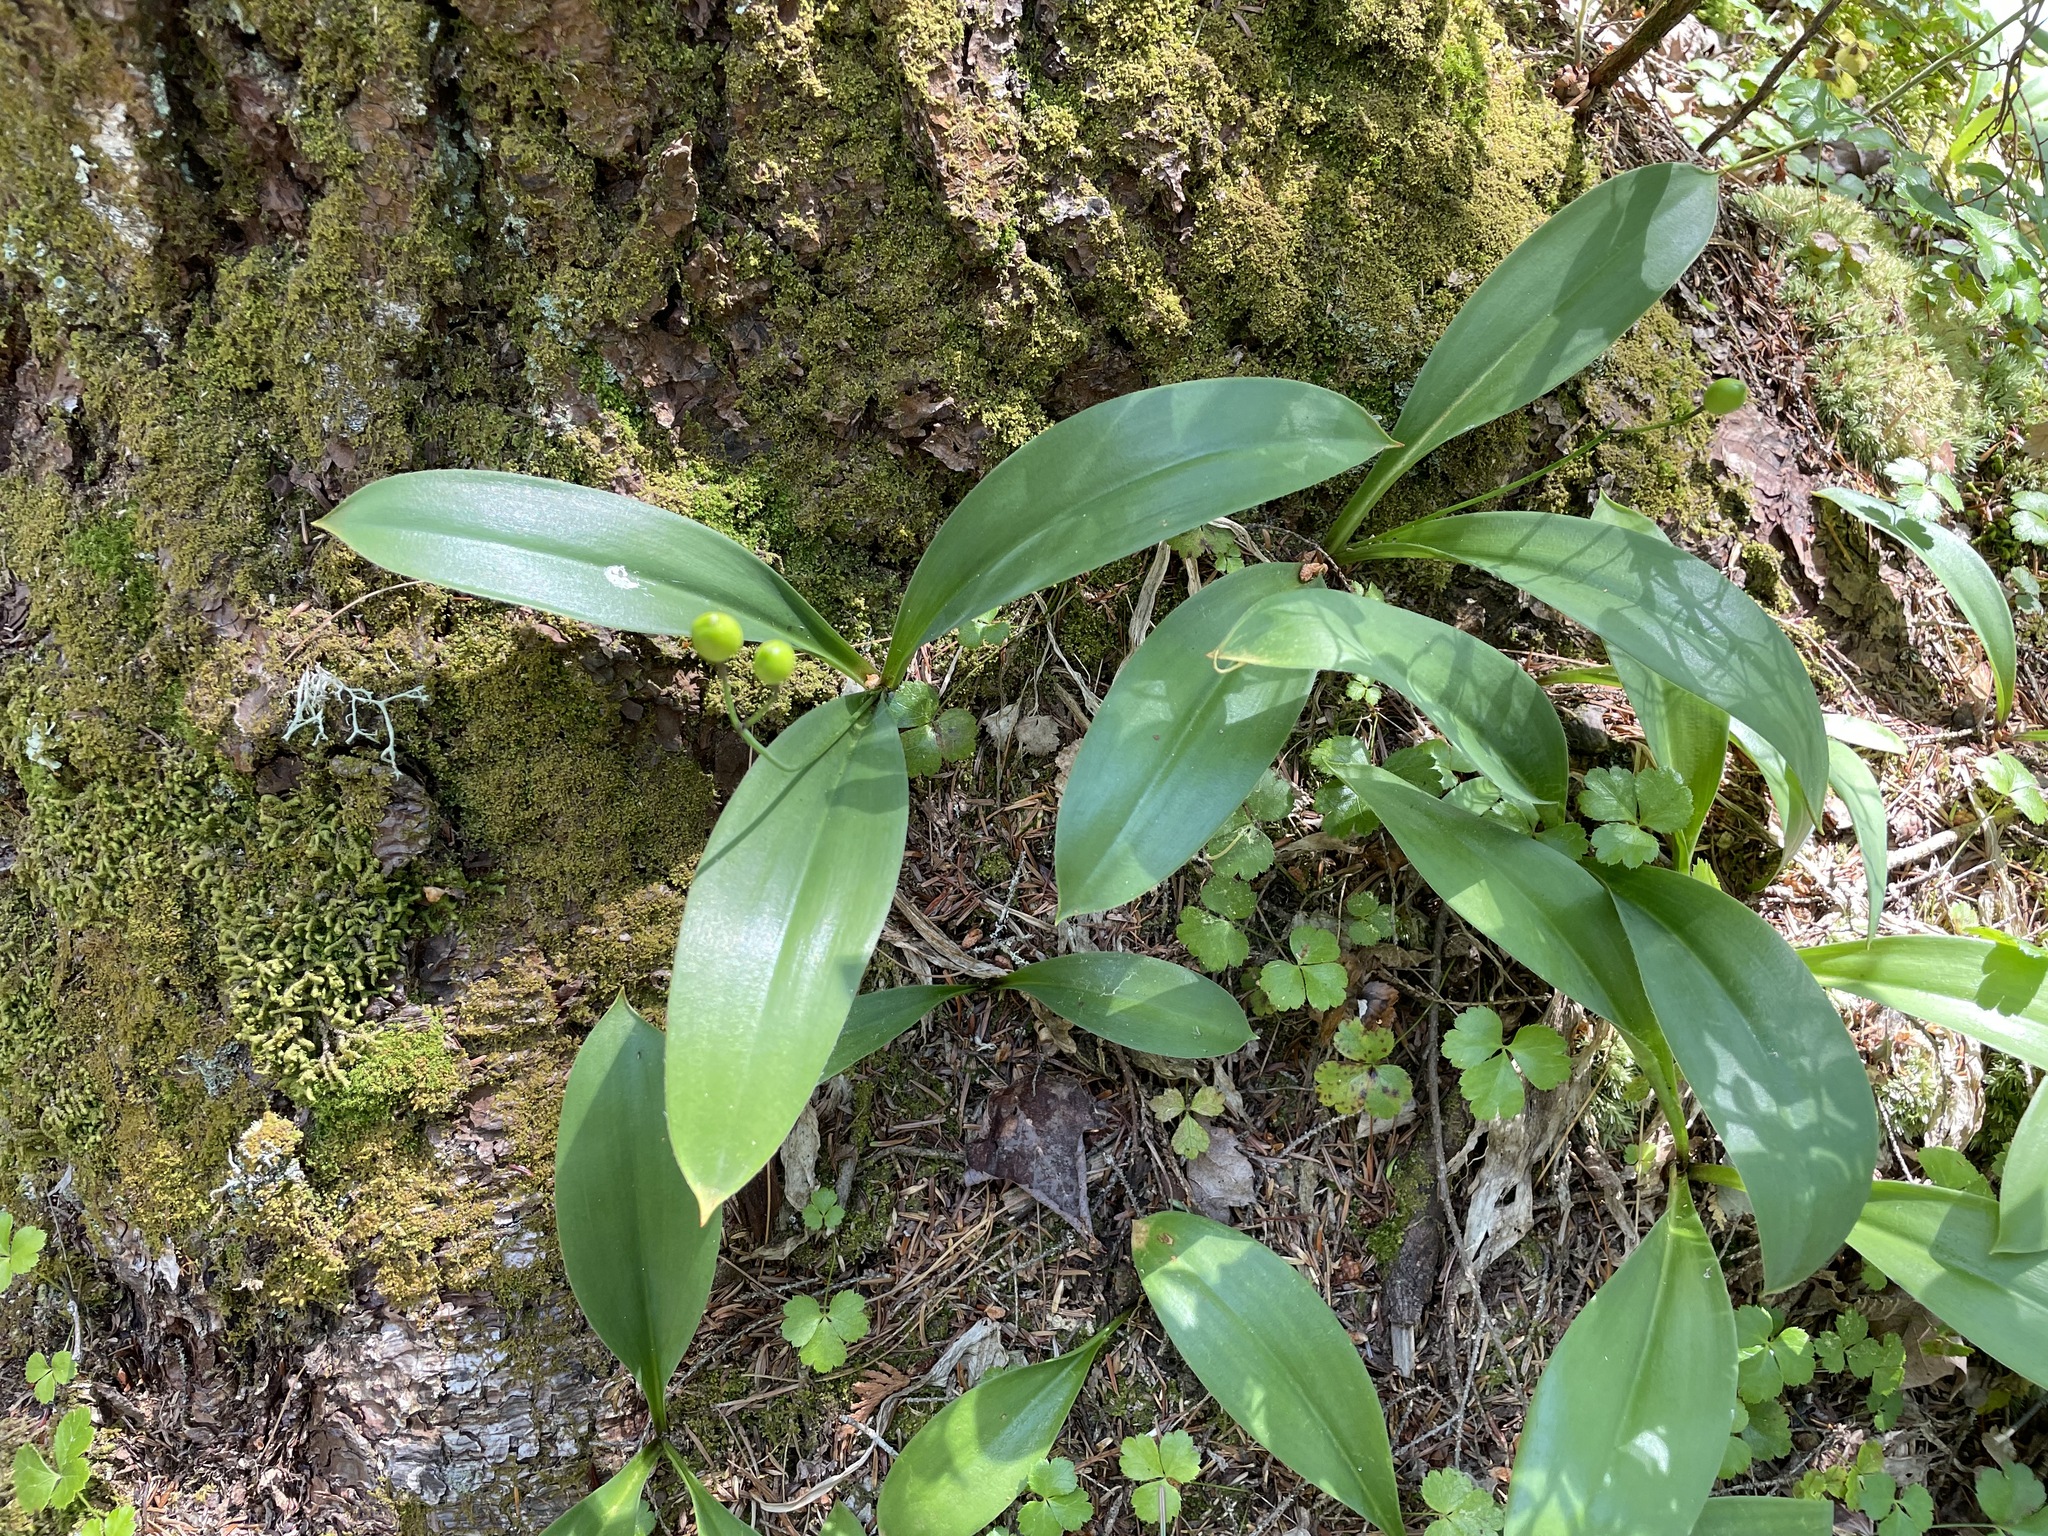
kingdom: Plantae
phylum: Tracheophyta
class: Liliopsida
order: Liliales
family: Liliaceae
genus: Clintonia
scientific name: Clintonia borealis
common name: Yellow clintonia
